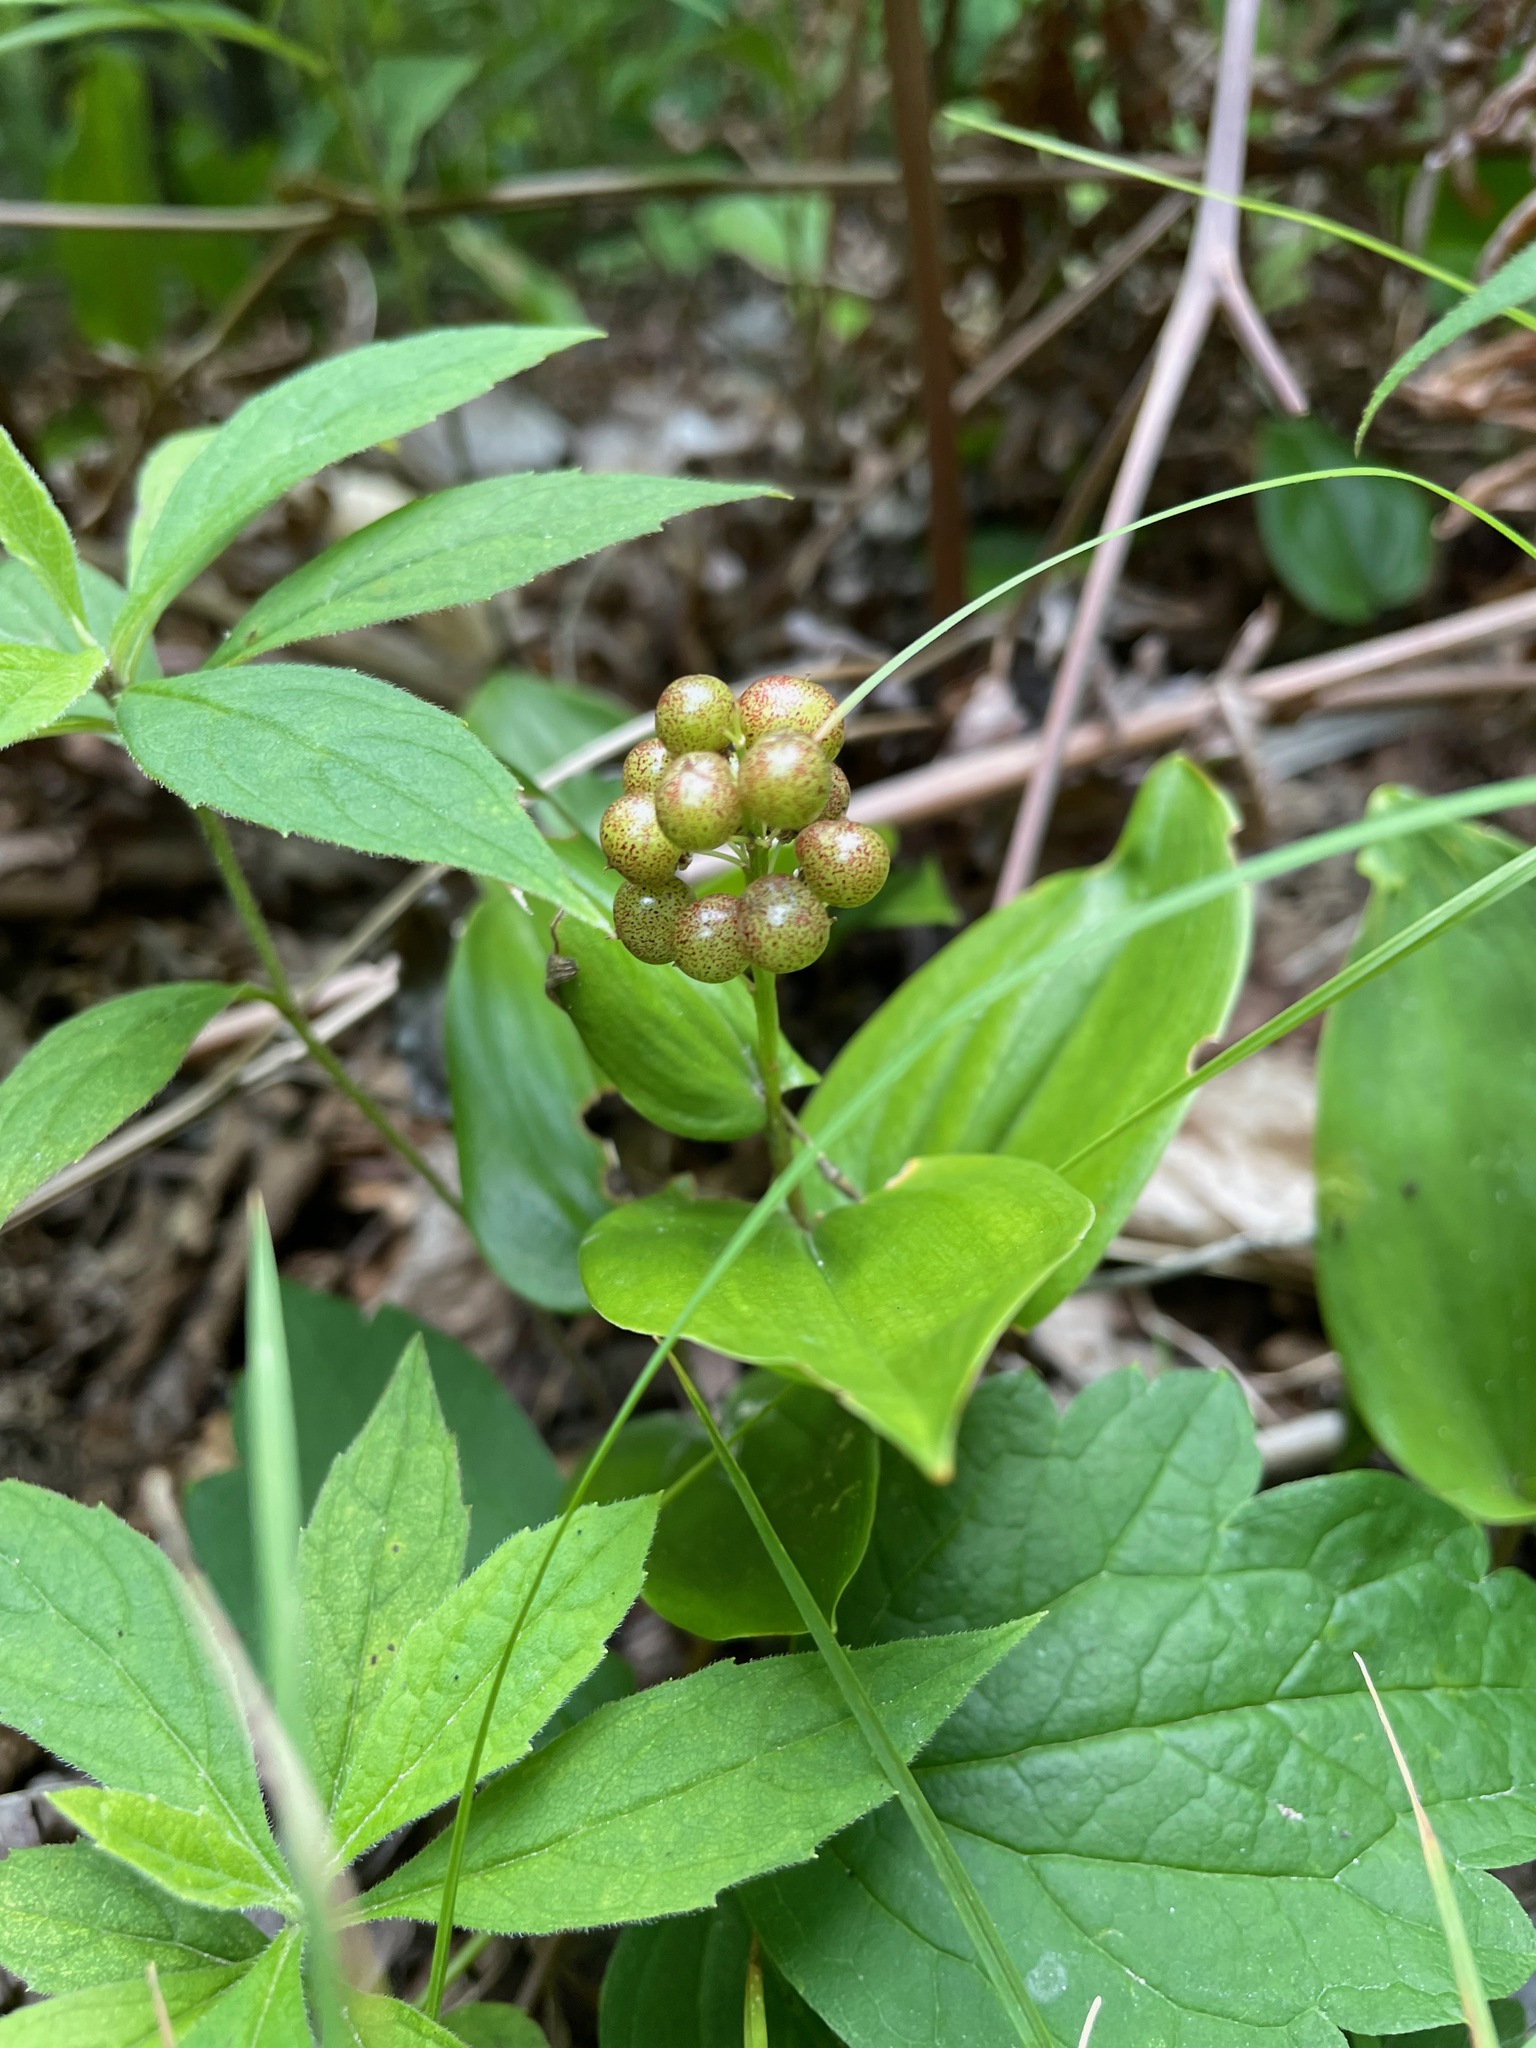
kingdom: Plantae
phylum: Tracheophyta
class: Liliopsida
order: Asparagales
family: Asparagaceae
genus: Maianthemum
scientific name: Maianthemum canadense
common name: False lily-of-the-valley
